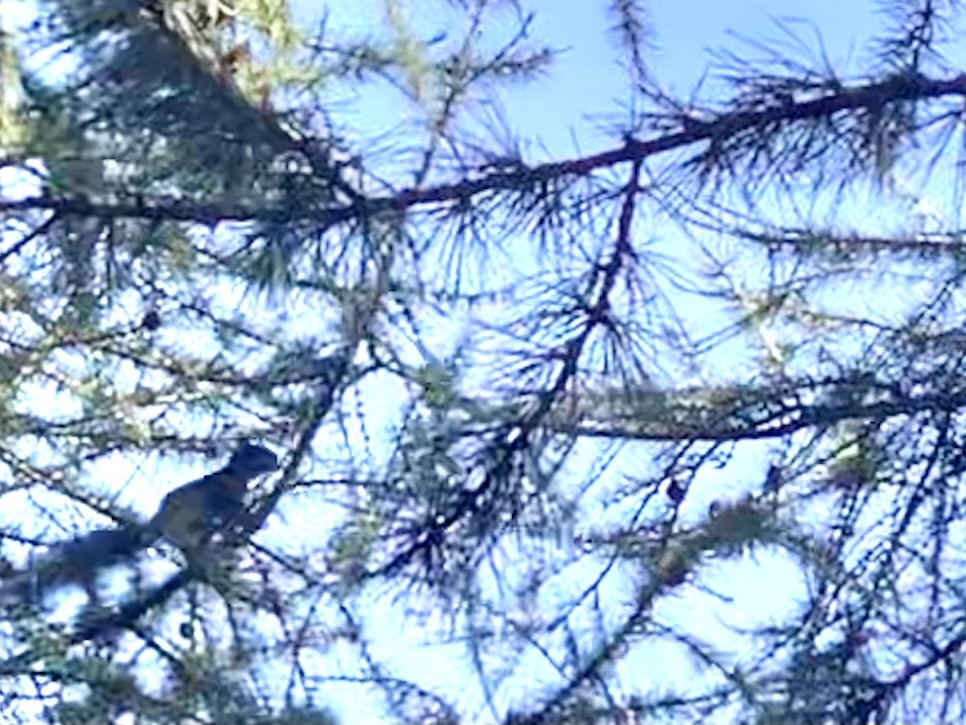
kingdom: Animalia
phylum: Chordata
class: Mammalia
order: Rodentia
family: Sciuridae
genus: Sciurus
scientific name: Sciurus vulgaris
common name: Eurasian red squirrel
